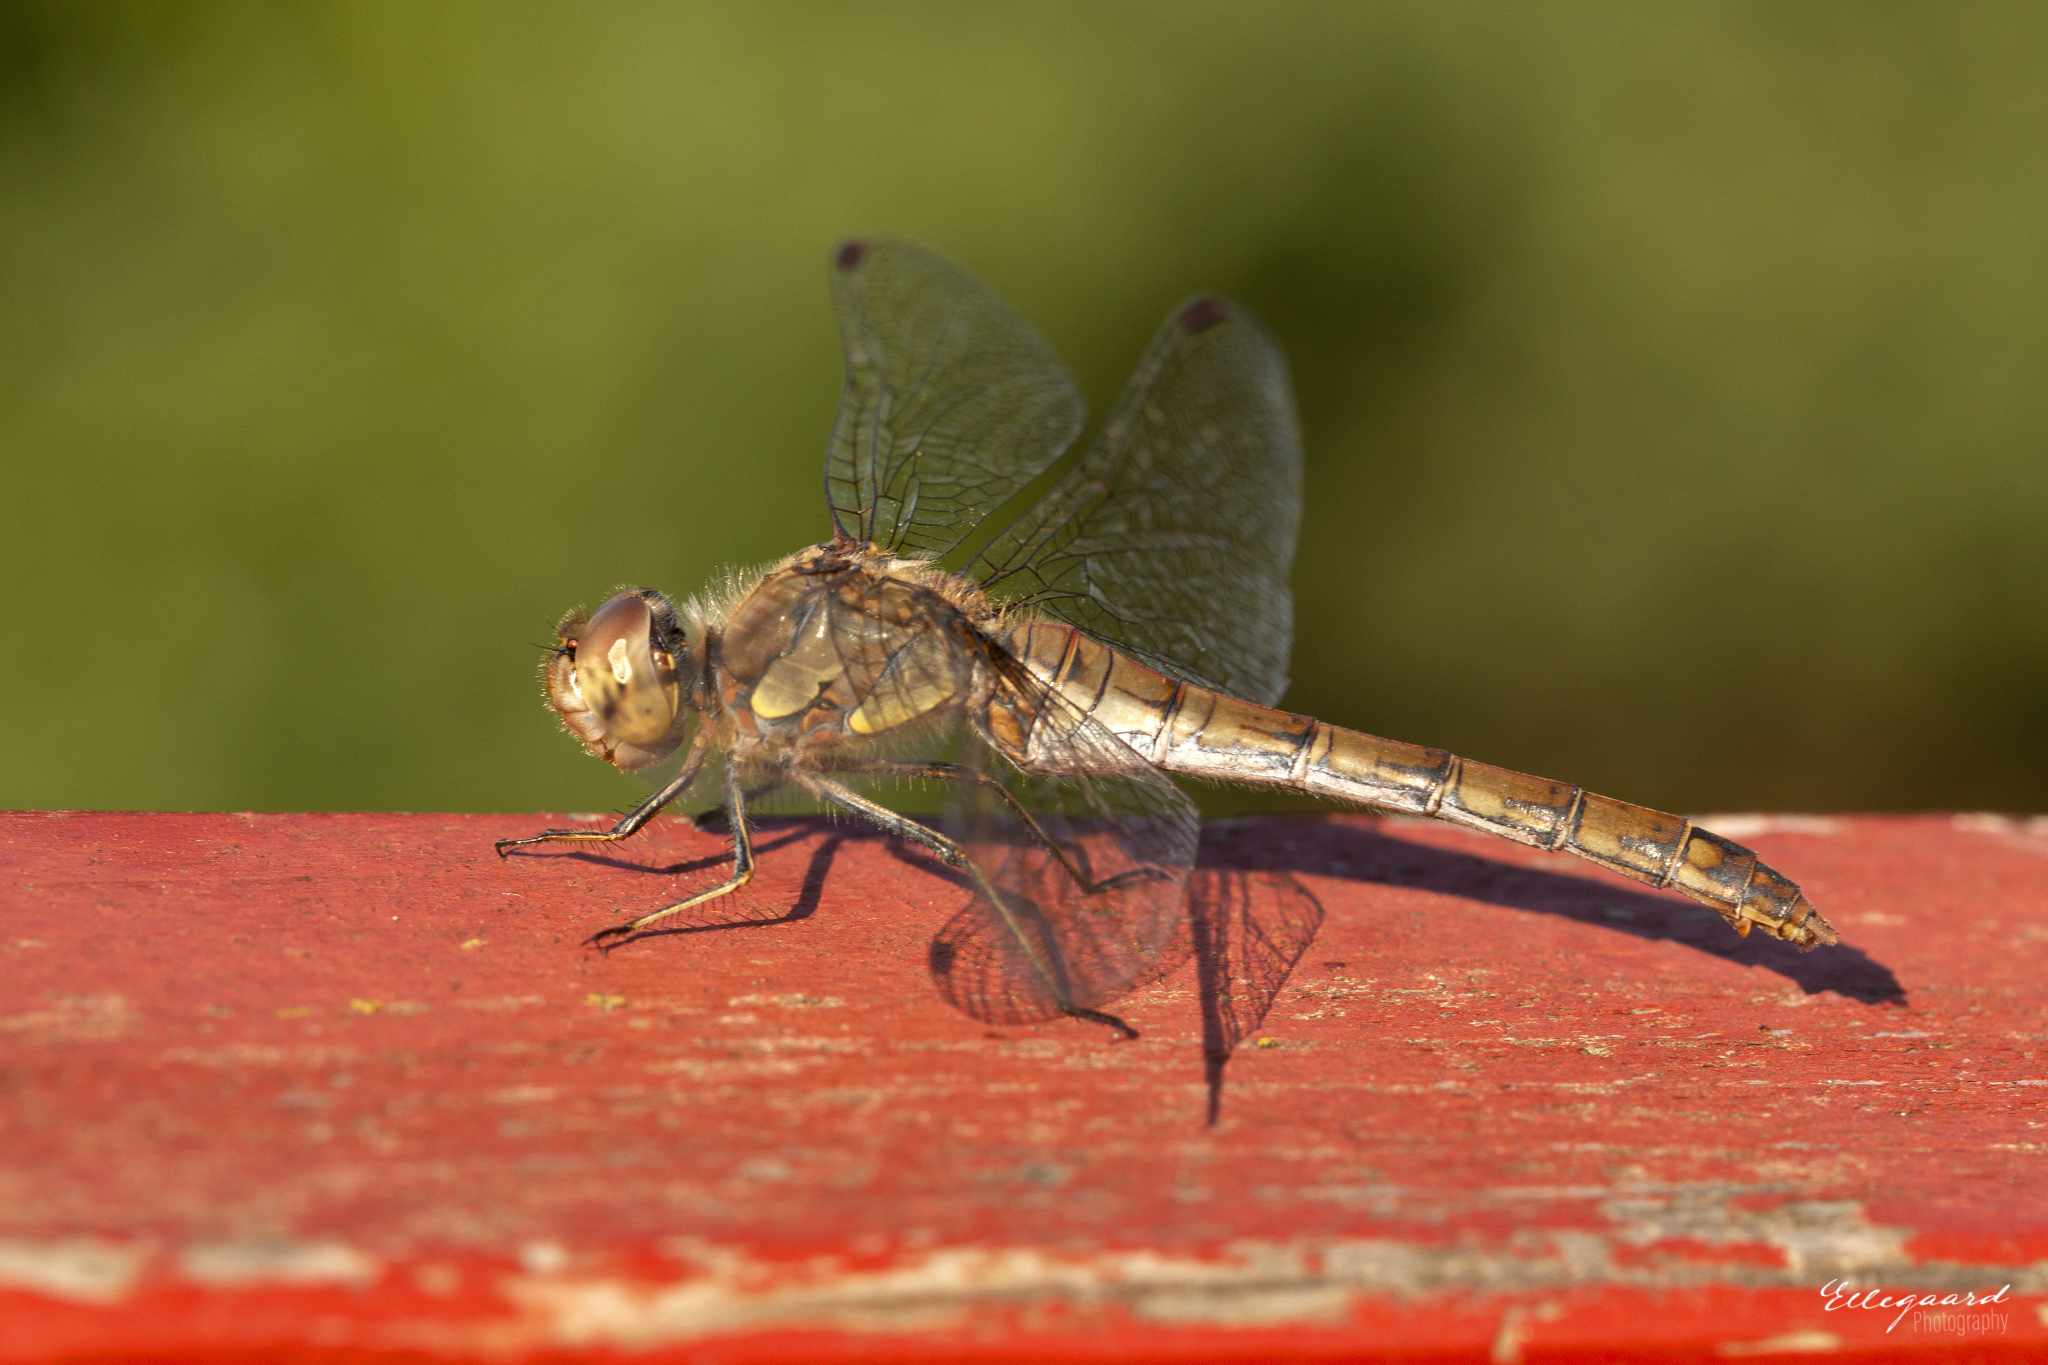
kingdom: Animalia
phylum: Arthropoda
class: Insecta
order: Odonata
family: Libellulidae
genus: Sympetrum
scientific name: Sympetrum striolatum
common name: Common darter
